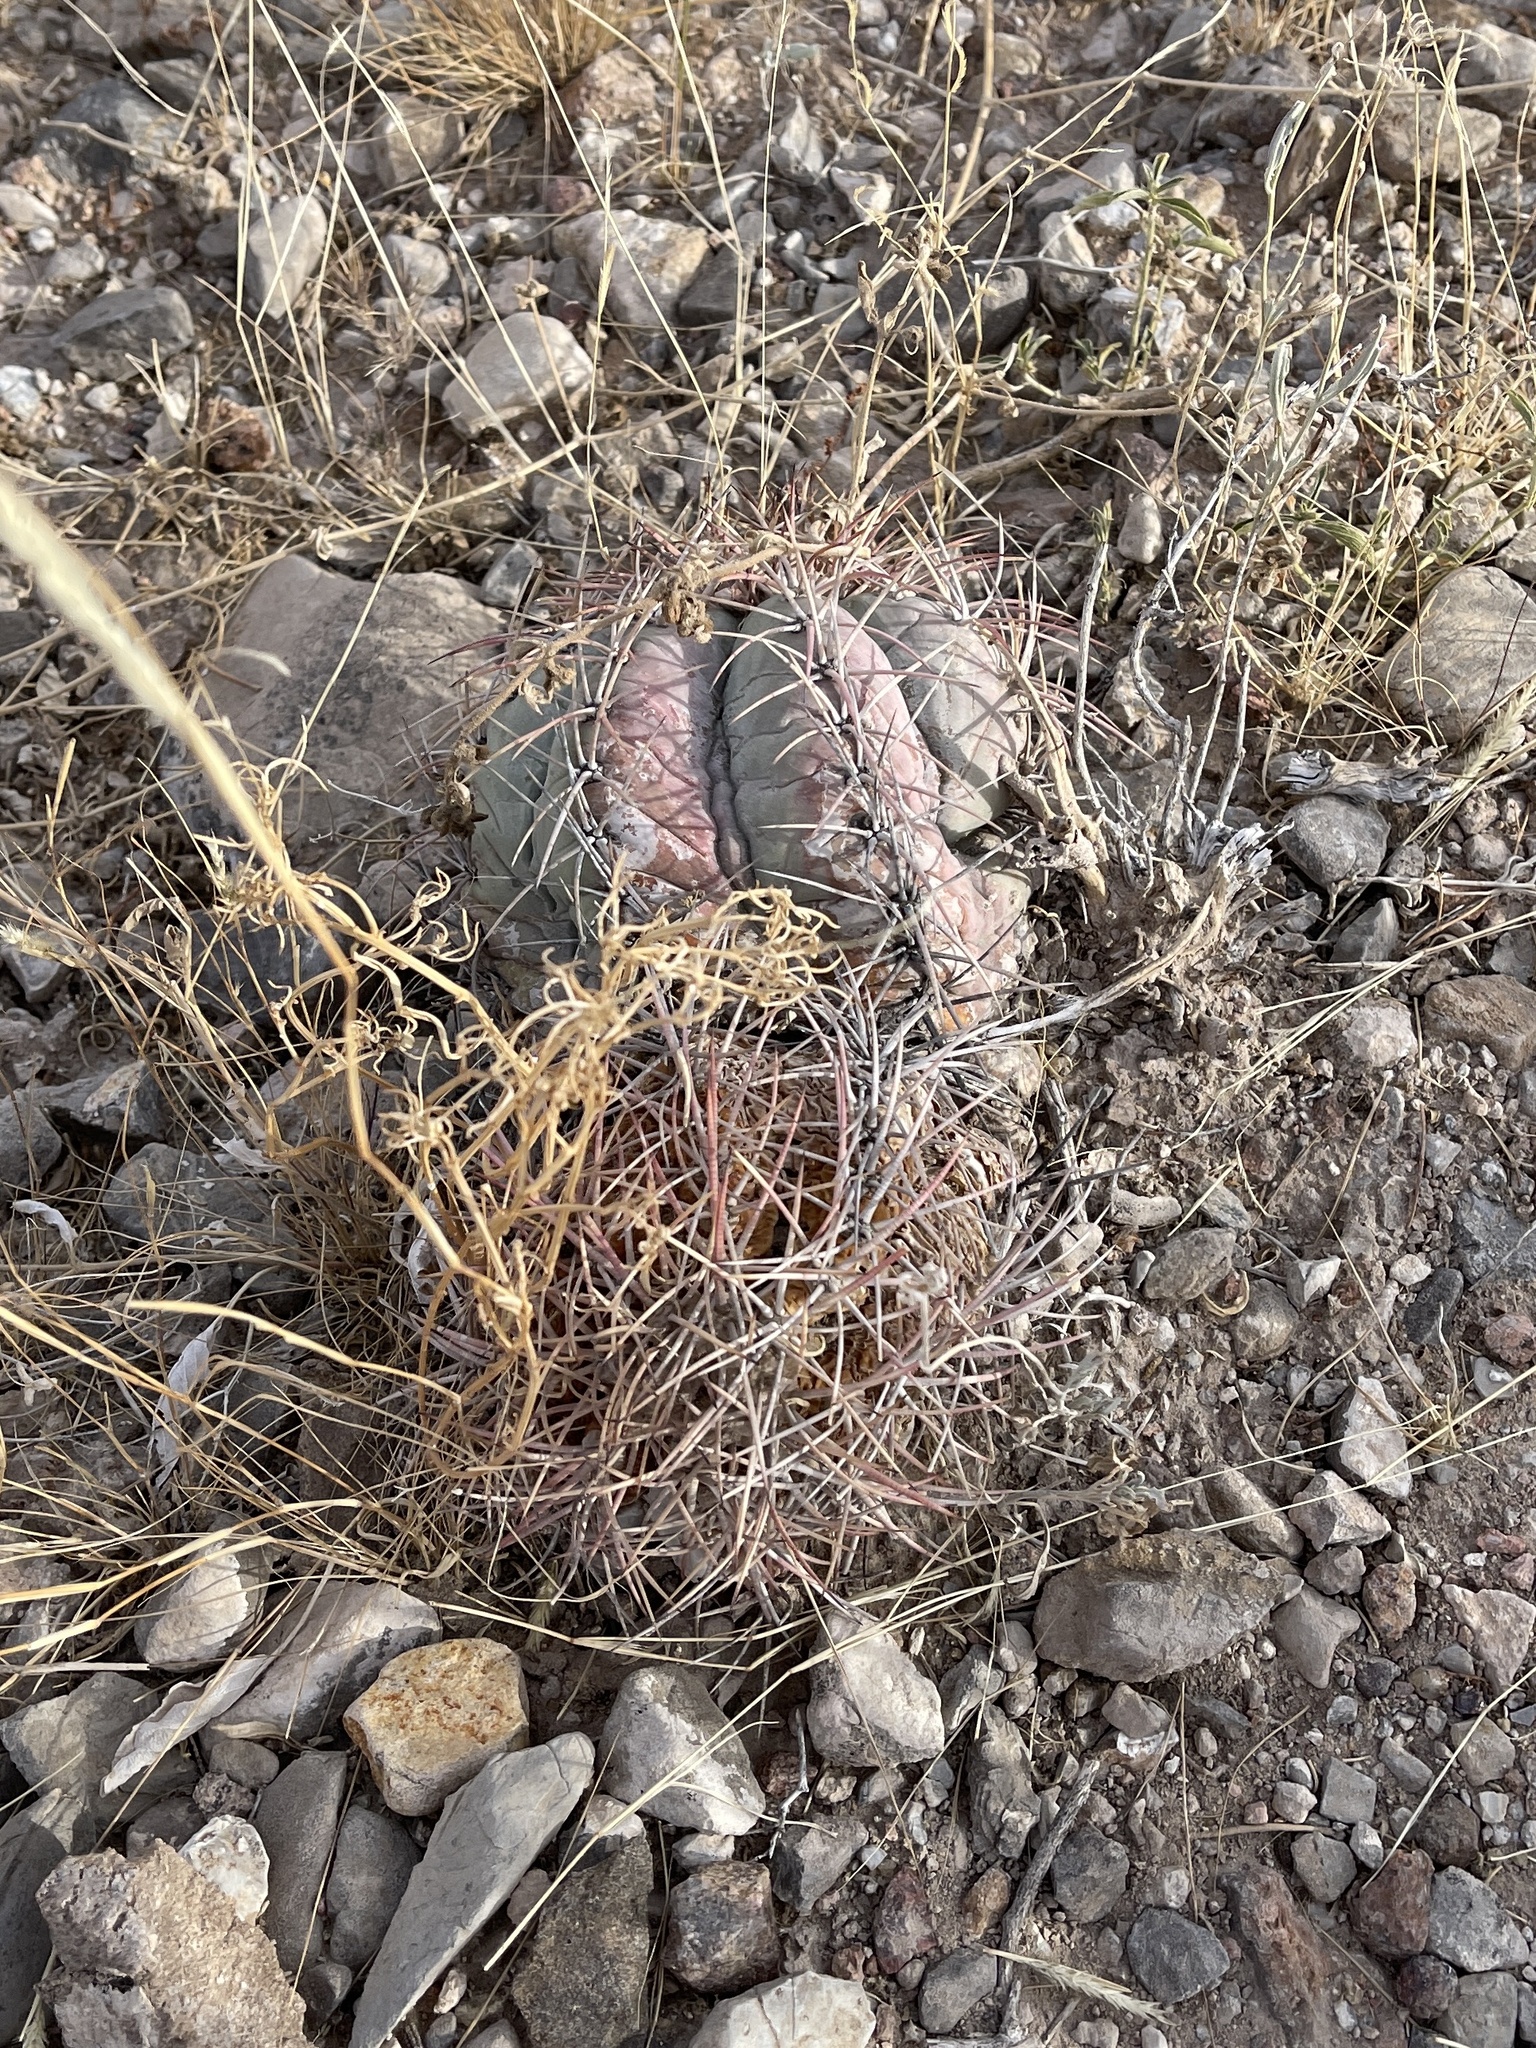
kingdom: Plantae
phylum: Tracheophyta
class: Magnoliopsida
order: Caryophyllales
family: Cactaceae
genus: Echinocactus
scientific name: Echinocactus horizonthalonius
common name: Devilshead
